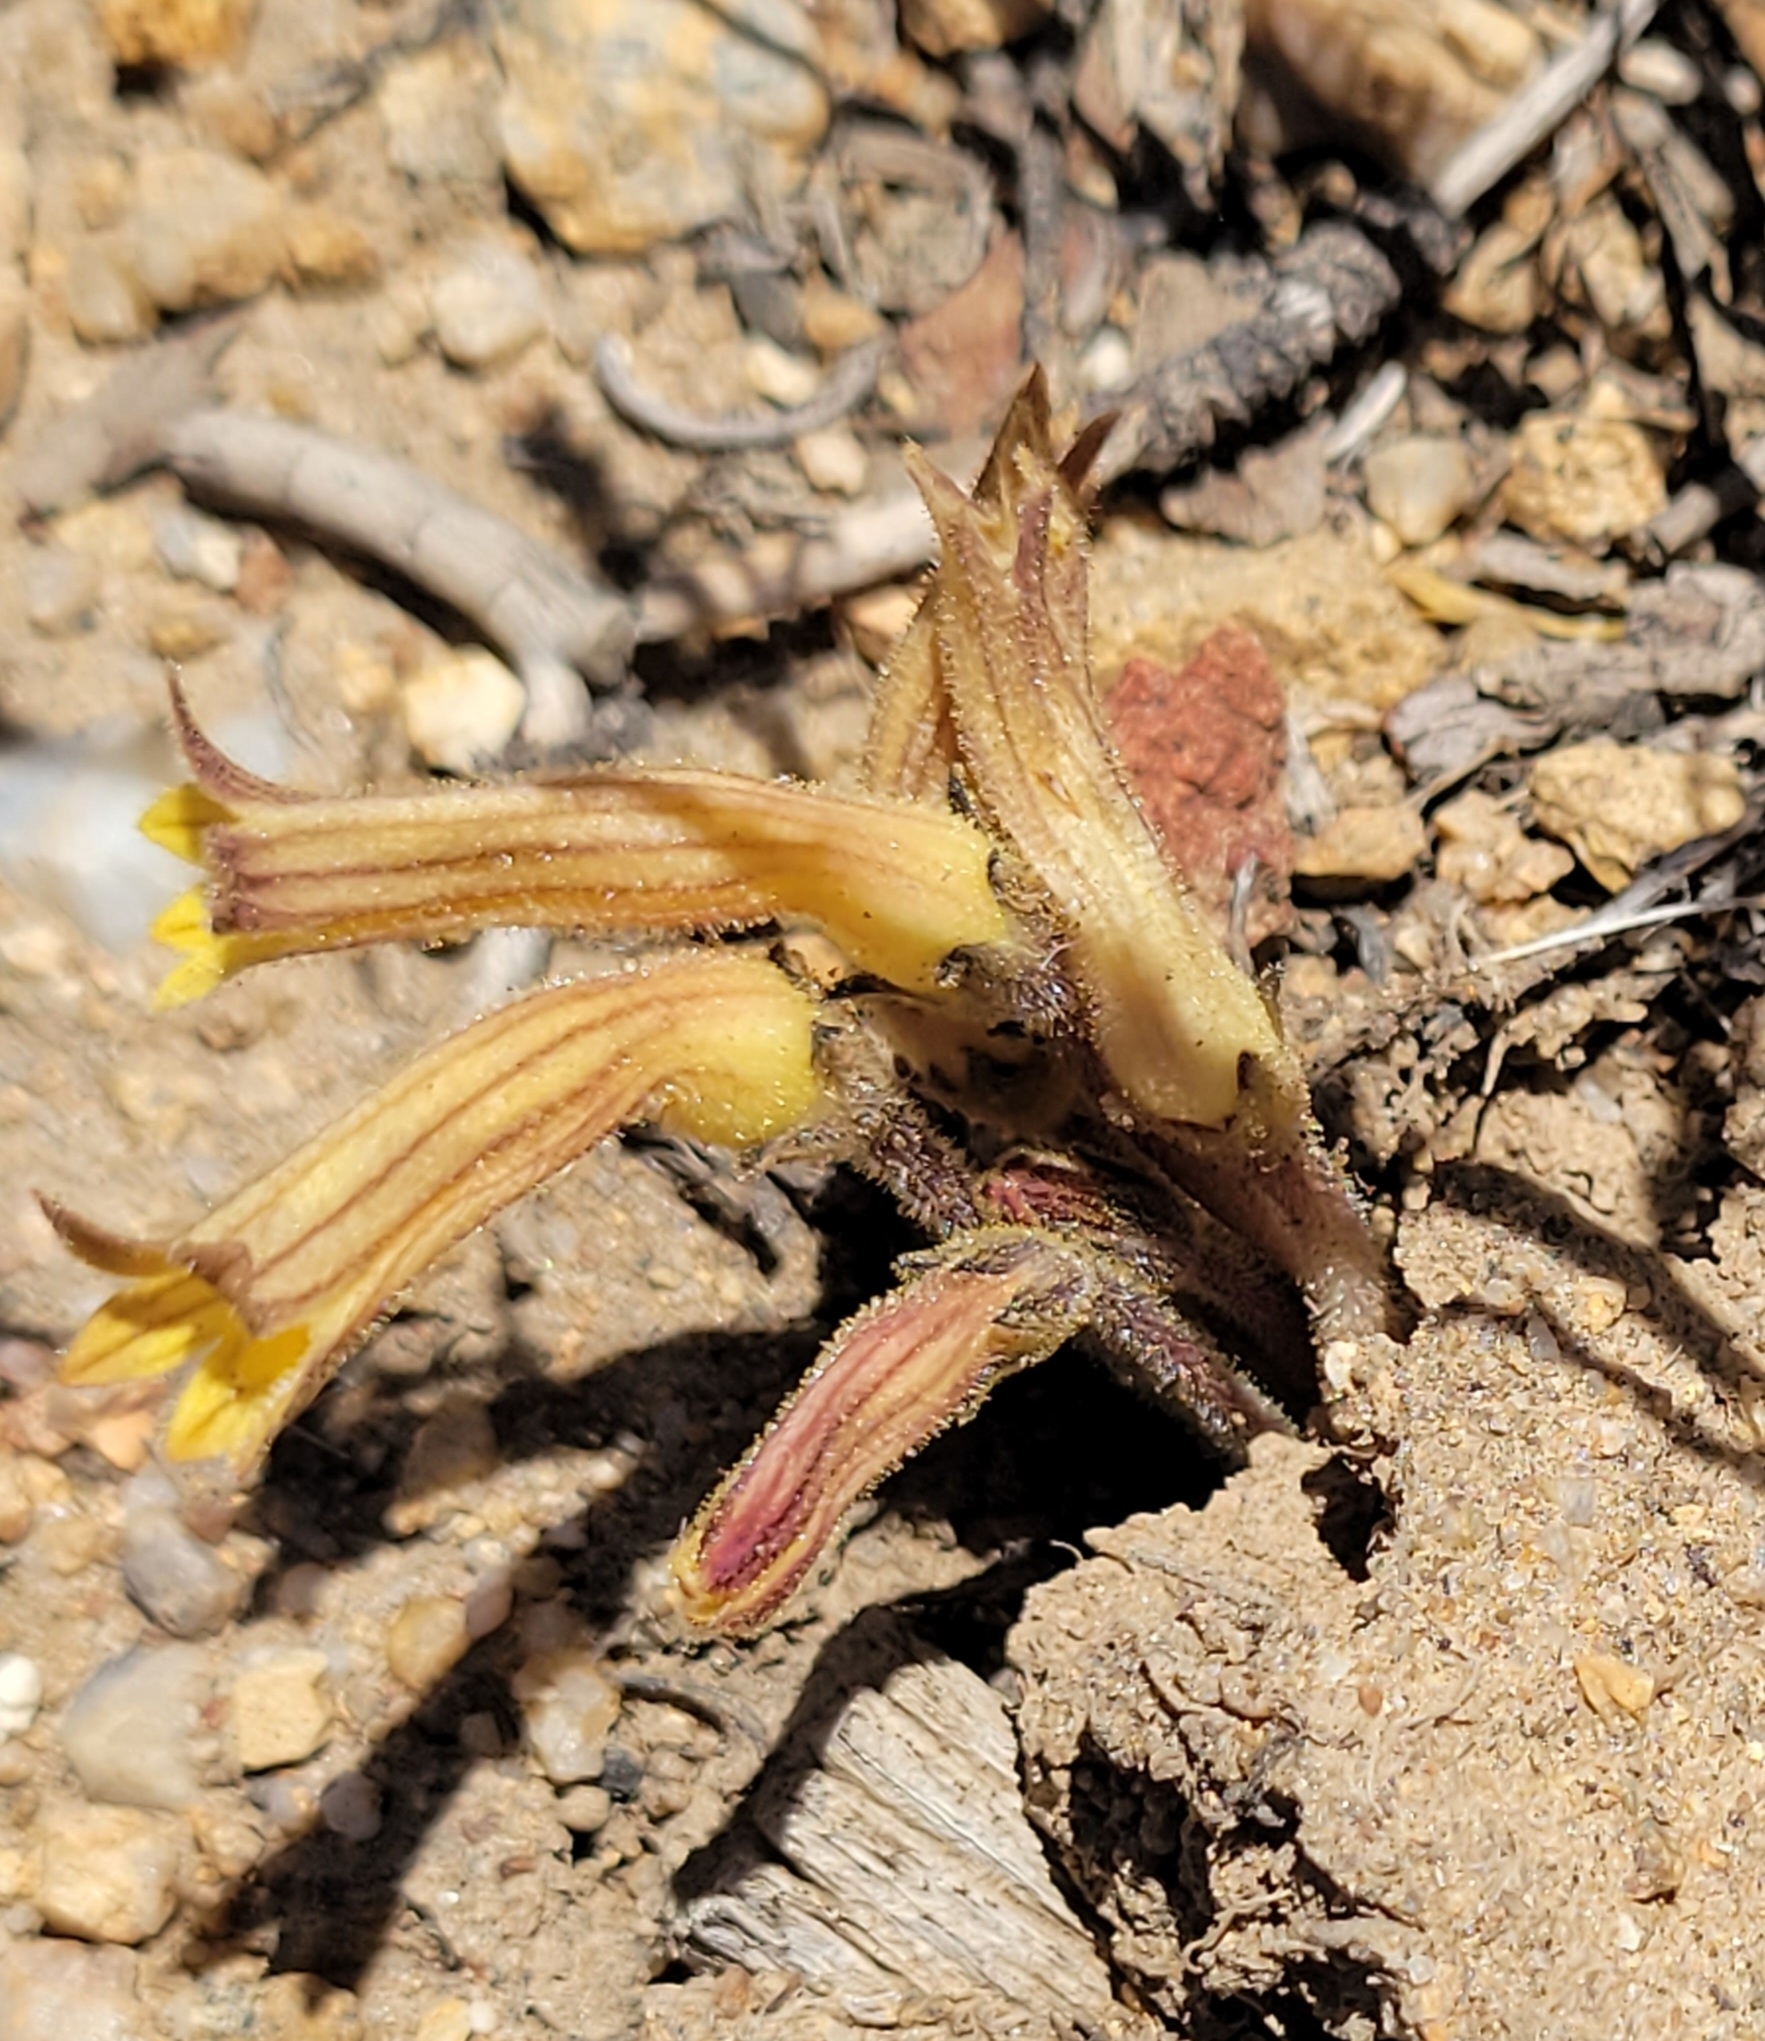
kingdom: Plantae
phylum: Tracheophyta
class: Magnoliopsida
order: Lamiales
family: Orobanchaceae
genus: Aphyllon
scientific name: Aphyllon franciscanum
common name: San francisco broomrape
